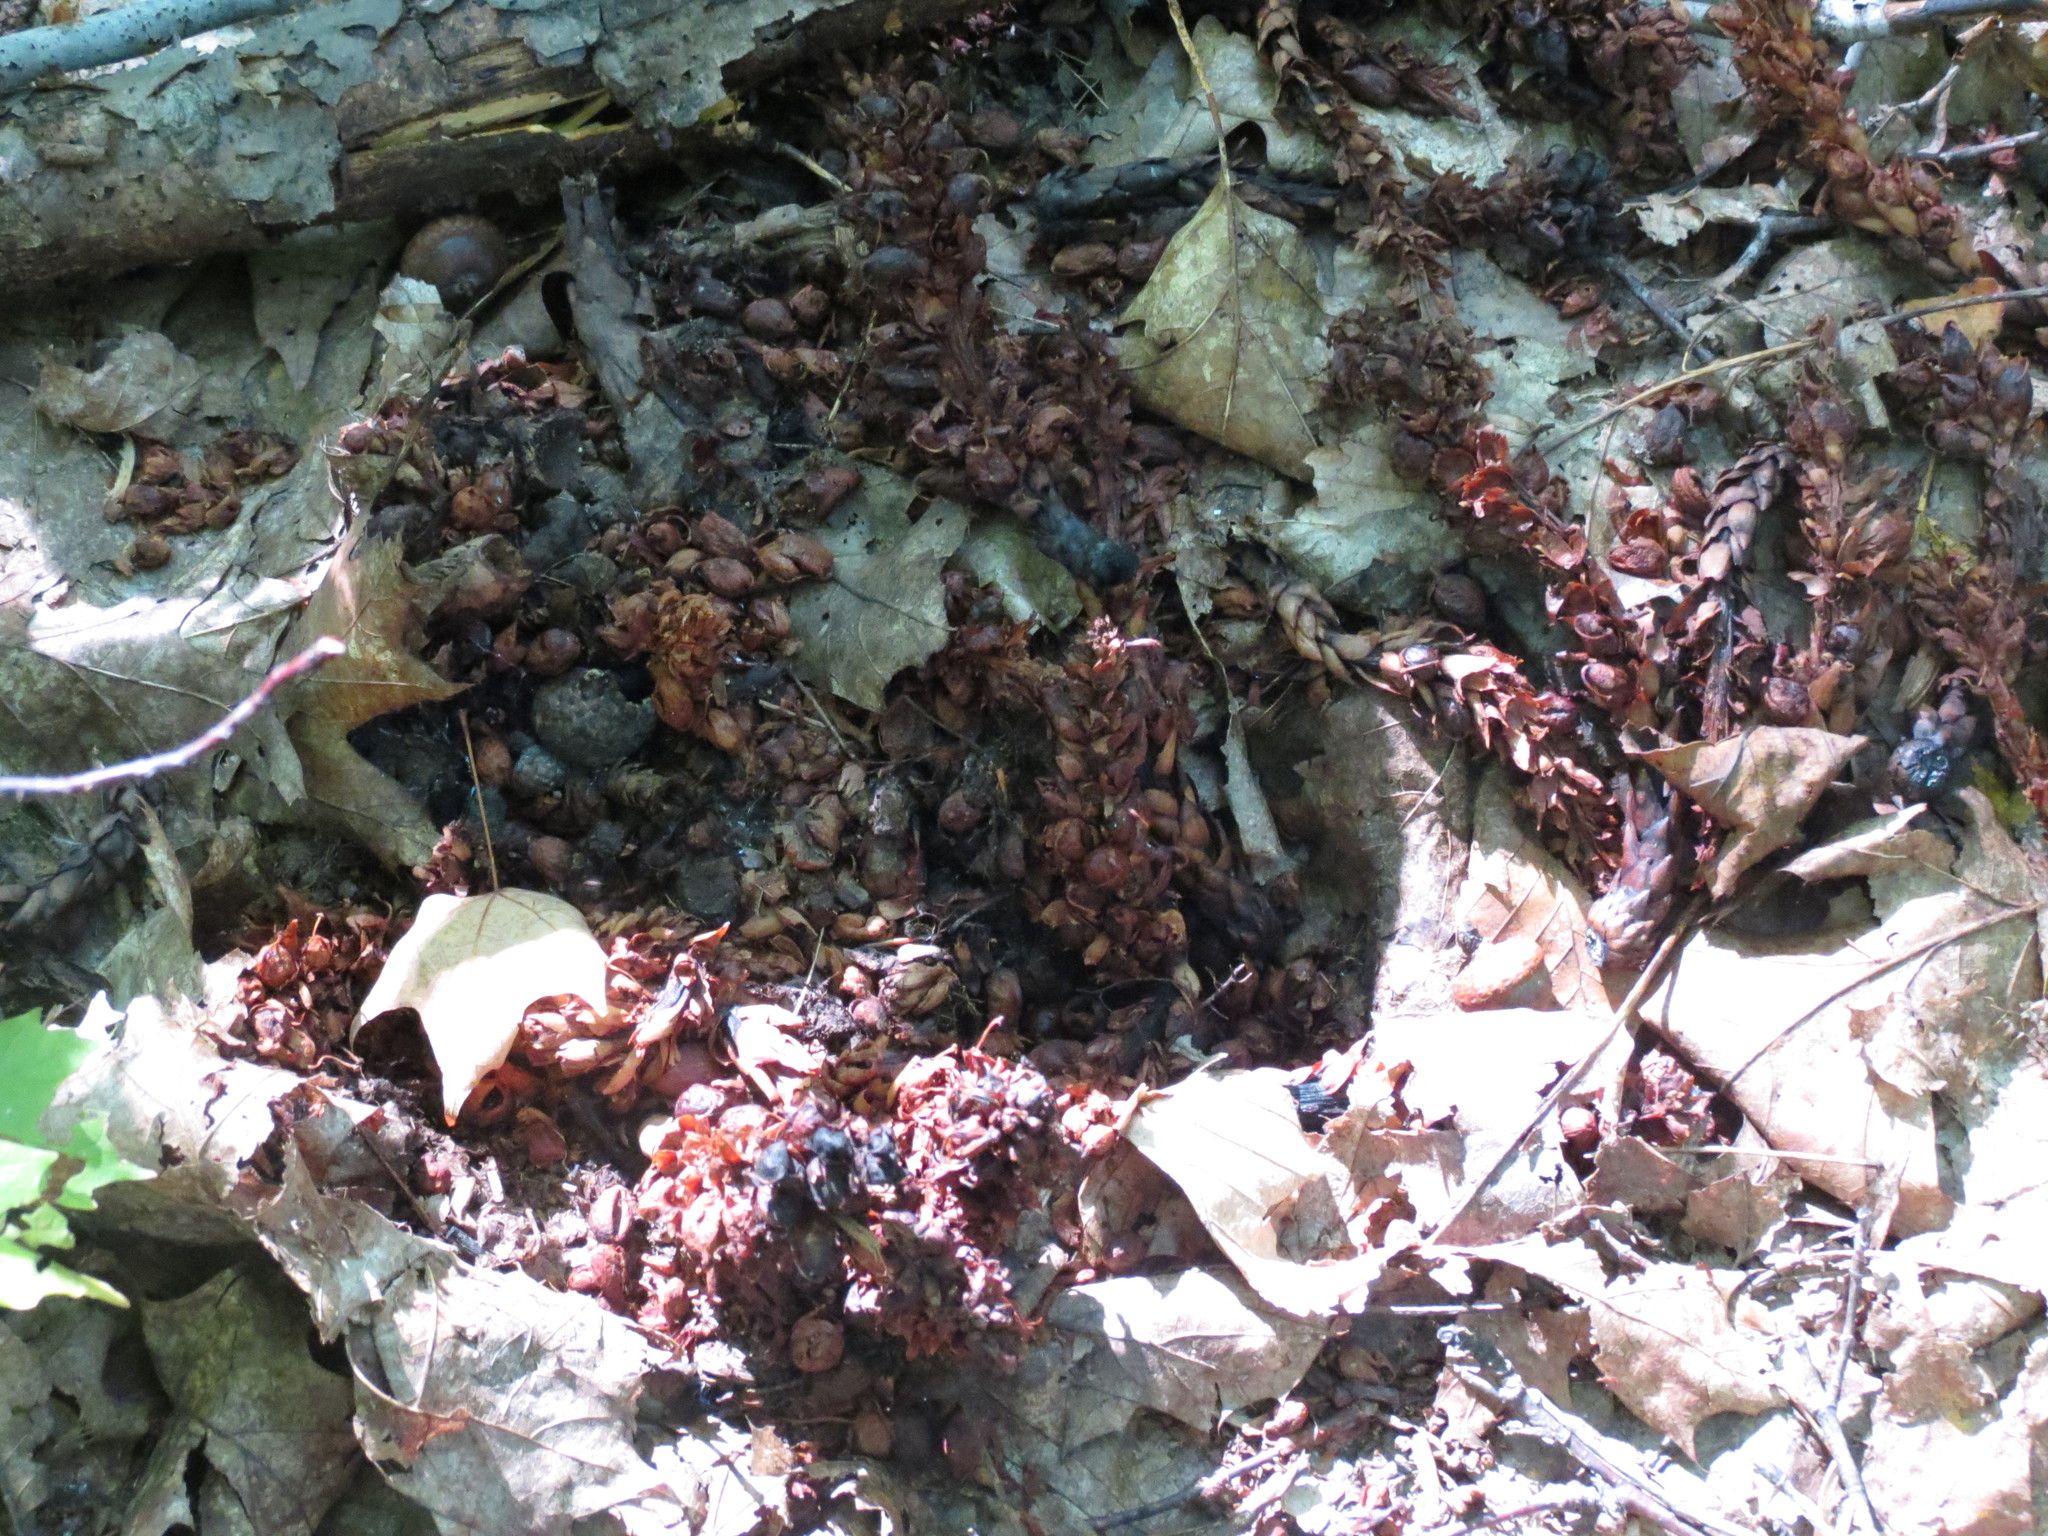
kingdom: Plantae
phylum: Tracheophyta
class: Magnoliopsida
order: Lamiales
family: Orobanchaceae
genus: Conopholis
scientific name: Conopholis americana
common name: American cancer-root
